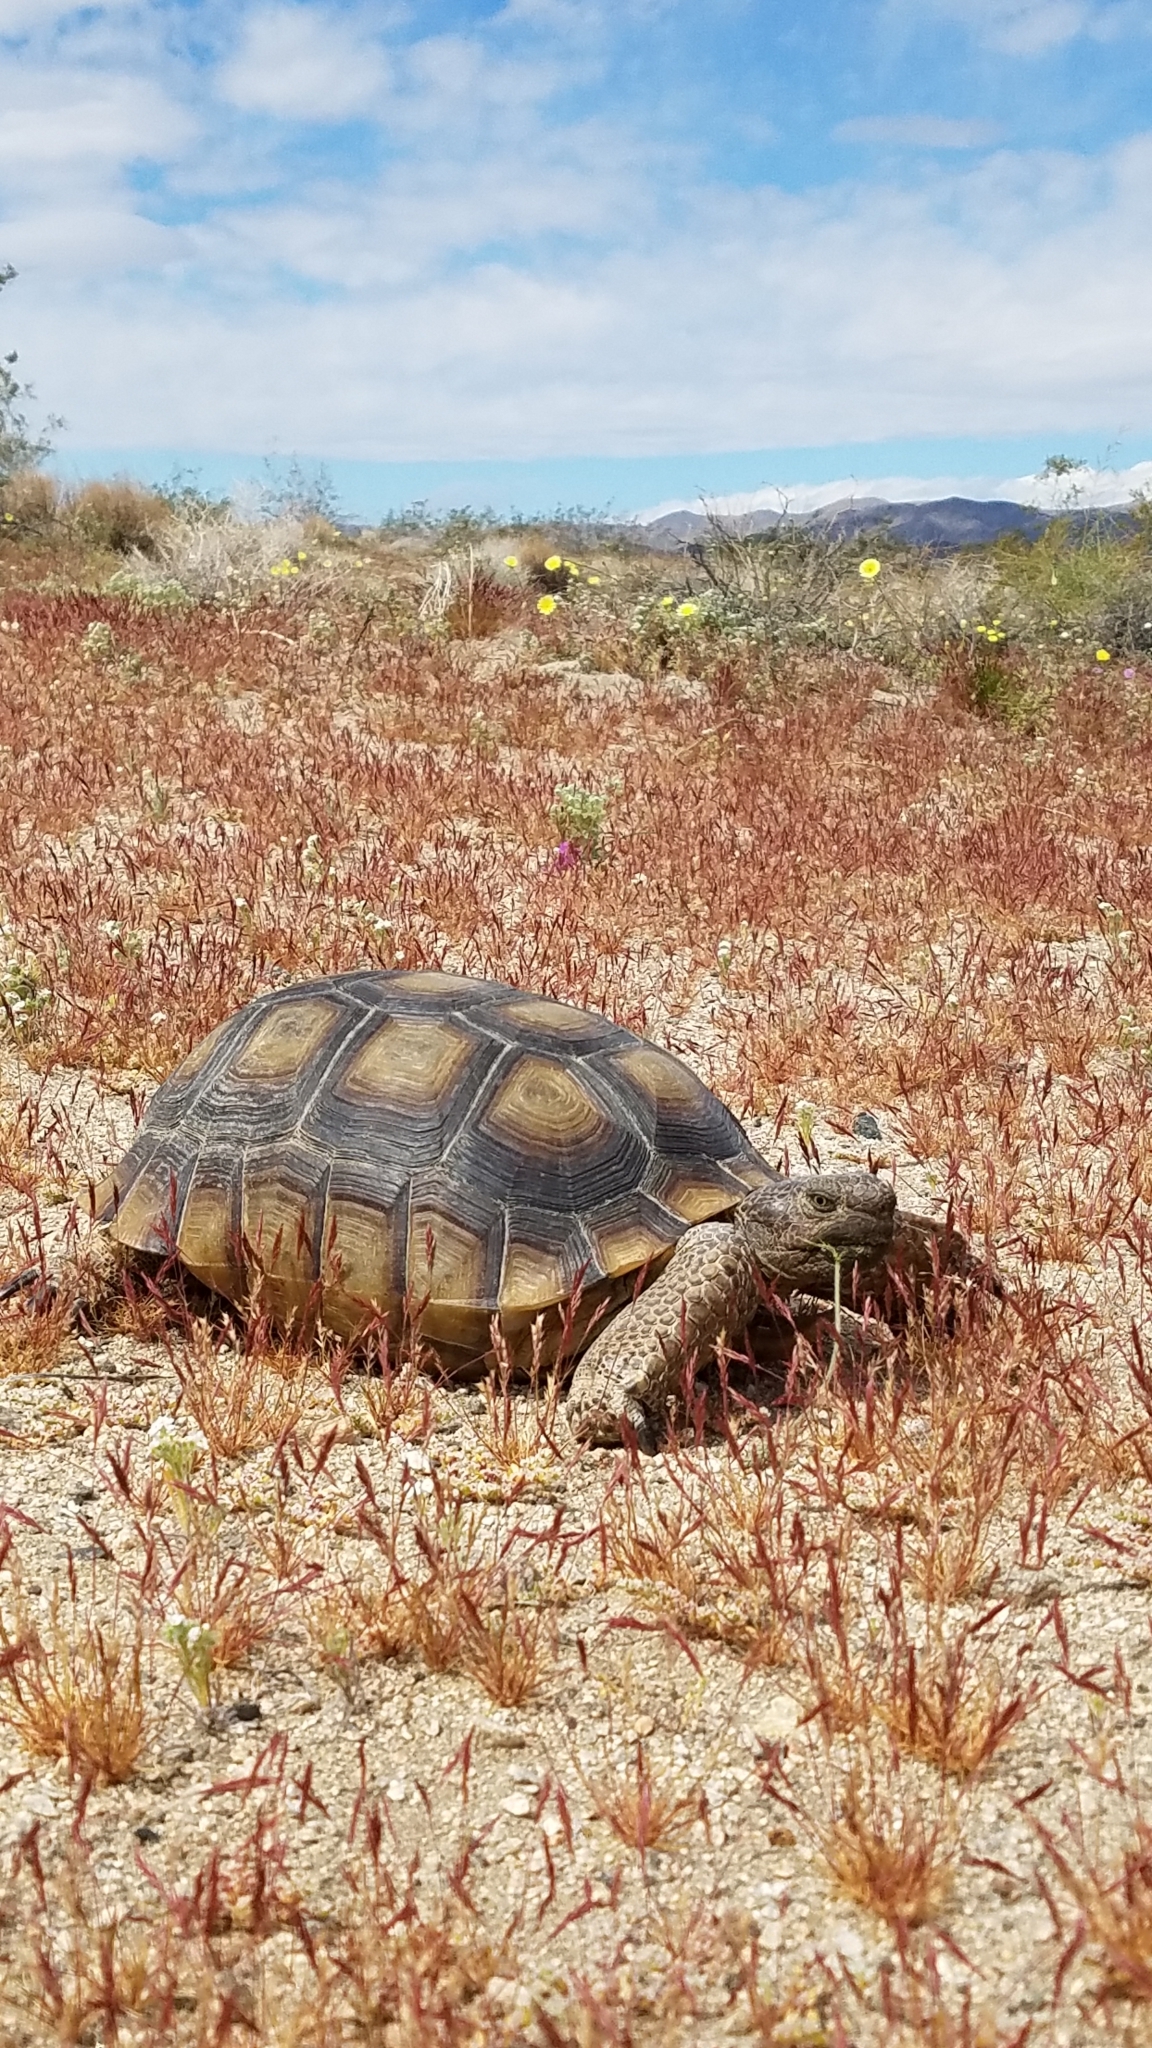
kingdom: Animalia
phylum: Chordata
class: Testudines
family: Testudinidae
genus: Gopherus
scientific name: Gopherus agassizii
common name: Mojave desert tortoise
